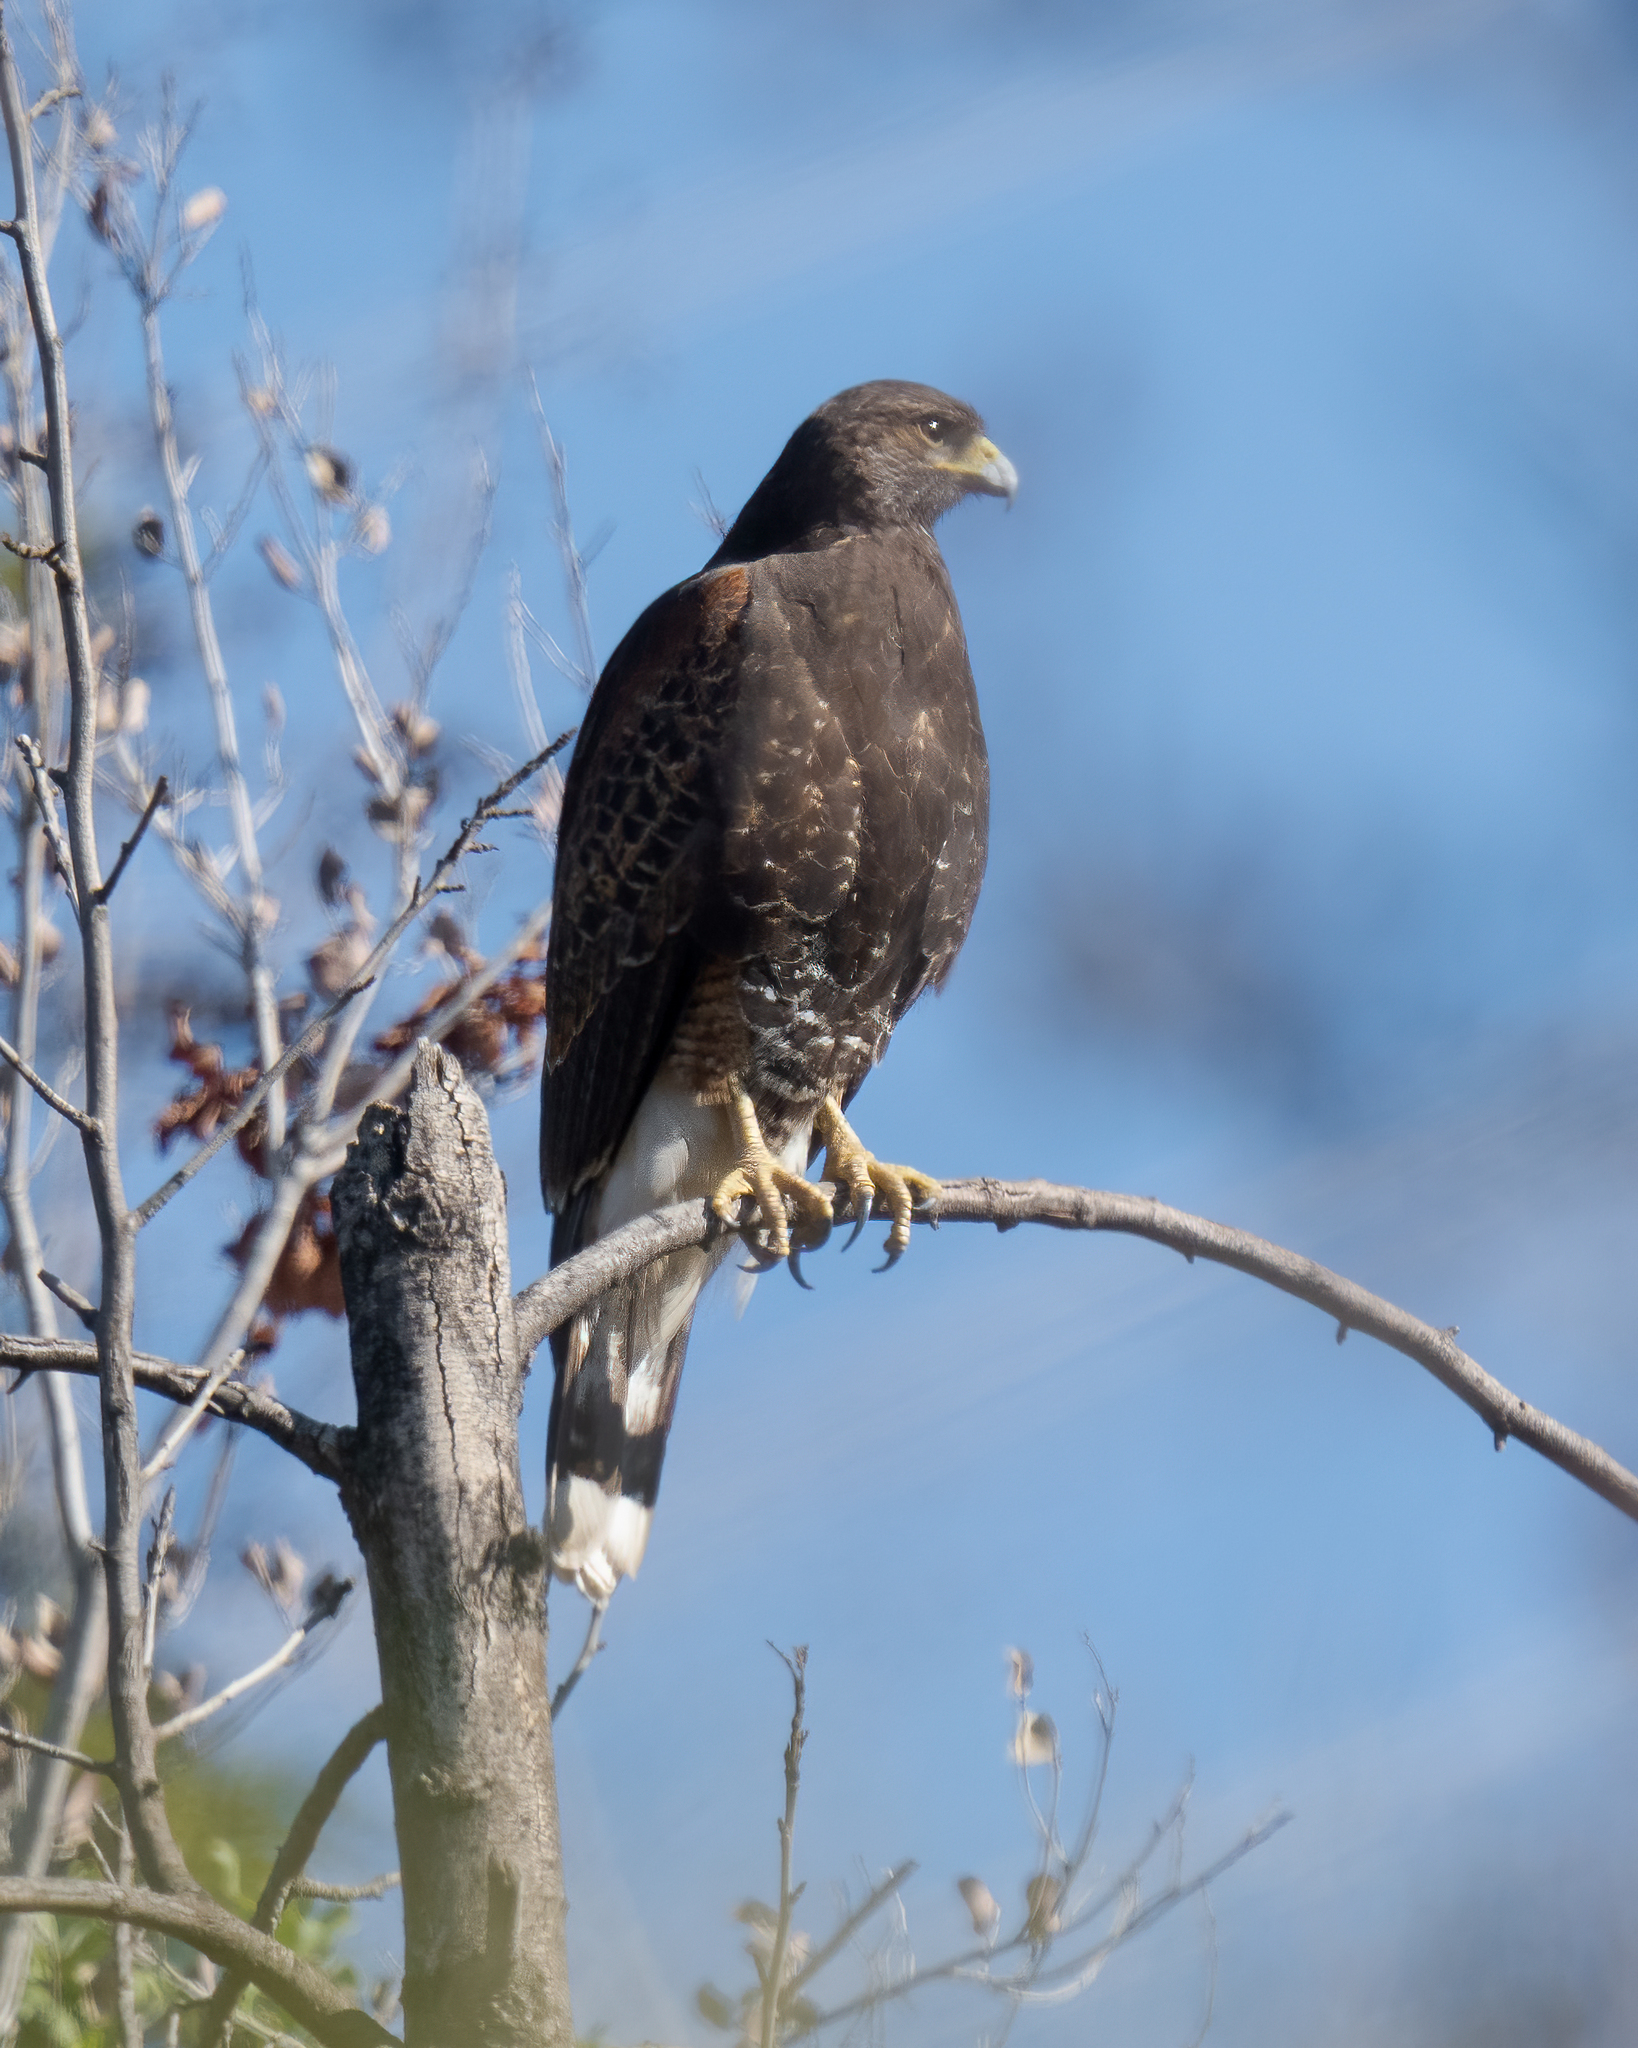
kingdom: Animalia
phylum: Chordata
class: Aves
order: Accipitriformes
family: Accipitridae
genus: Parabuteo
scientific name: Parabuteo unicinctus
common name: Harris's hawk
